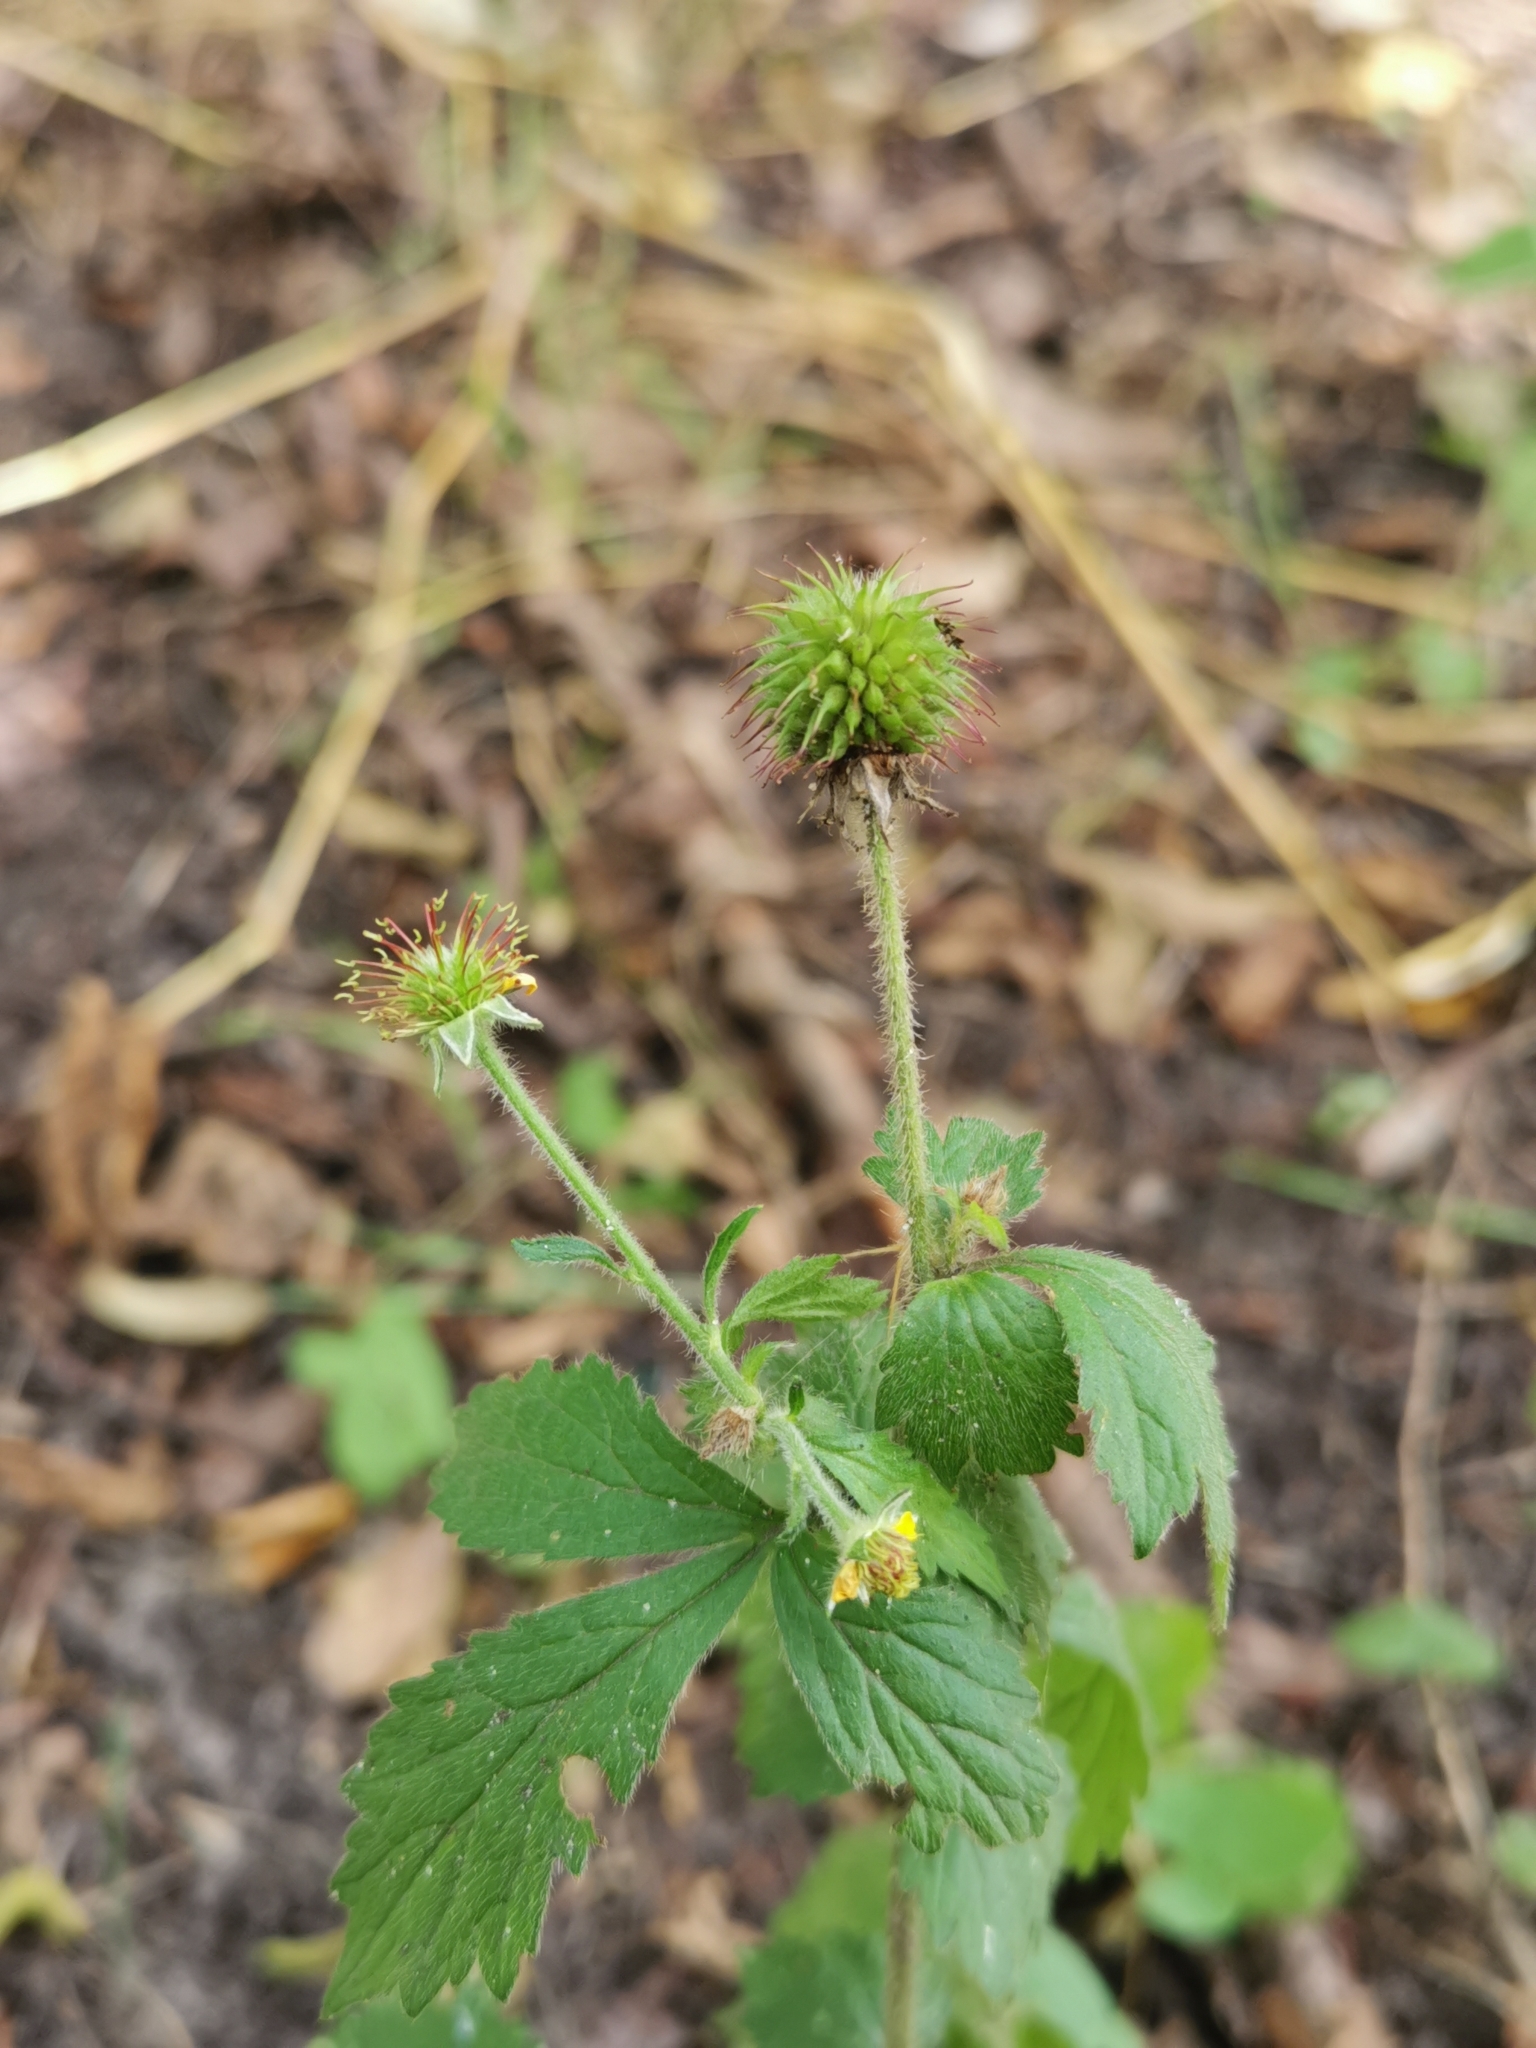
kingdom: Plantae
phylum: Tracheophyta
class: Magnoliopsida
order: Rosales
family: Rosaceae
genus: Geum
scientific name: Geum urbanum
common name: Wood avens
